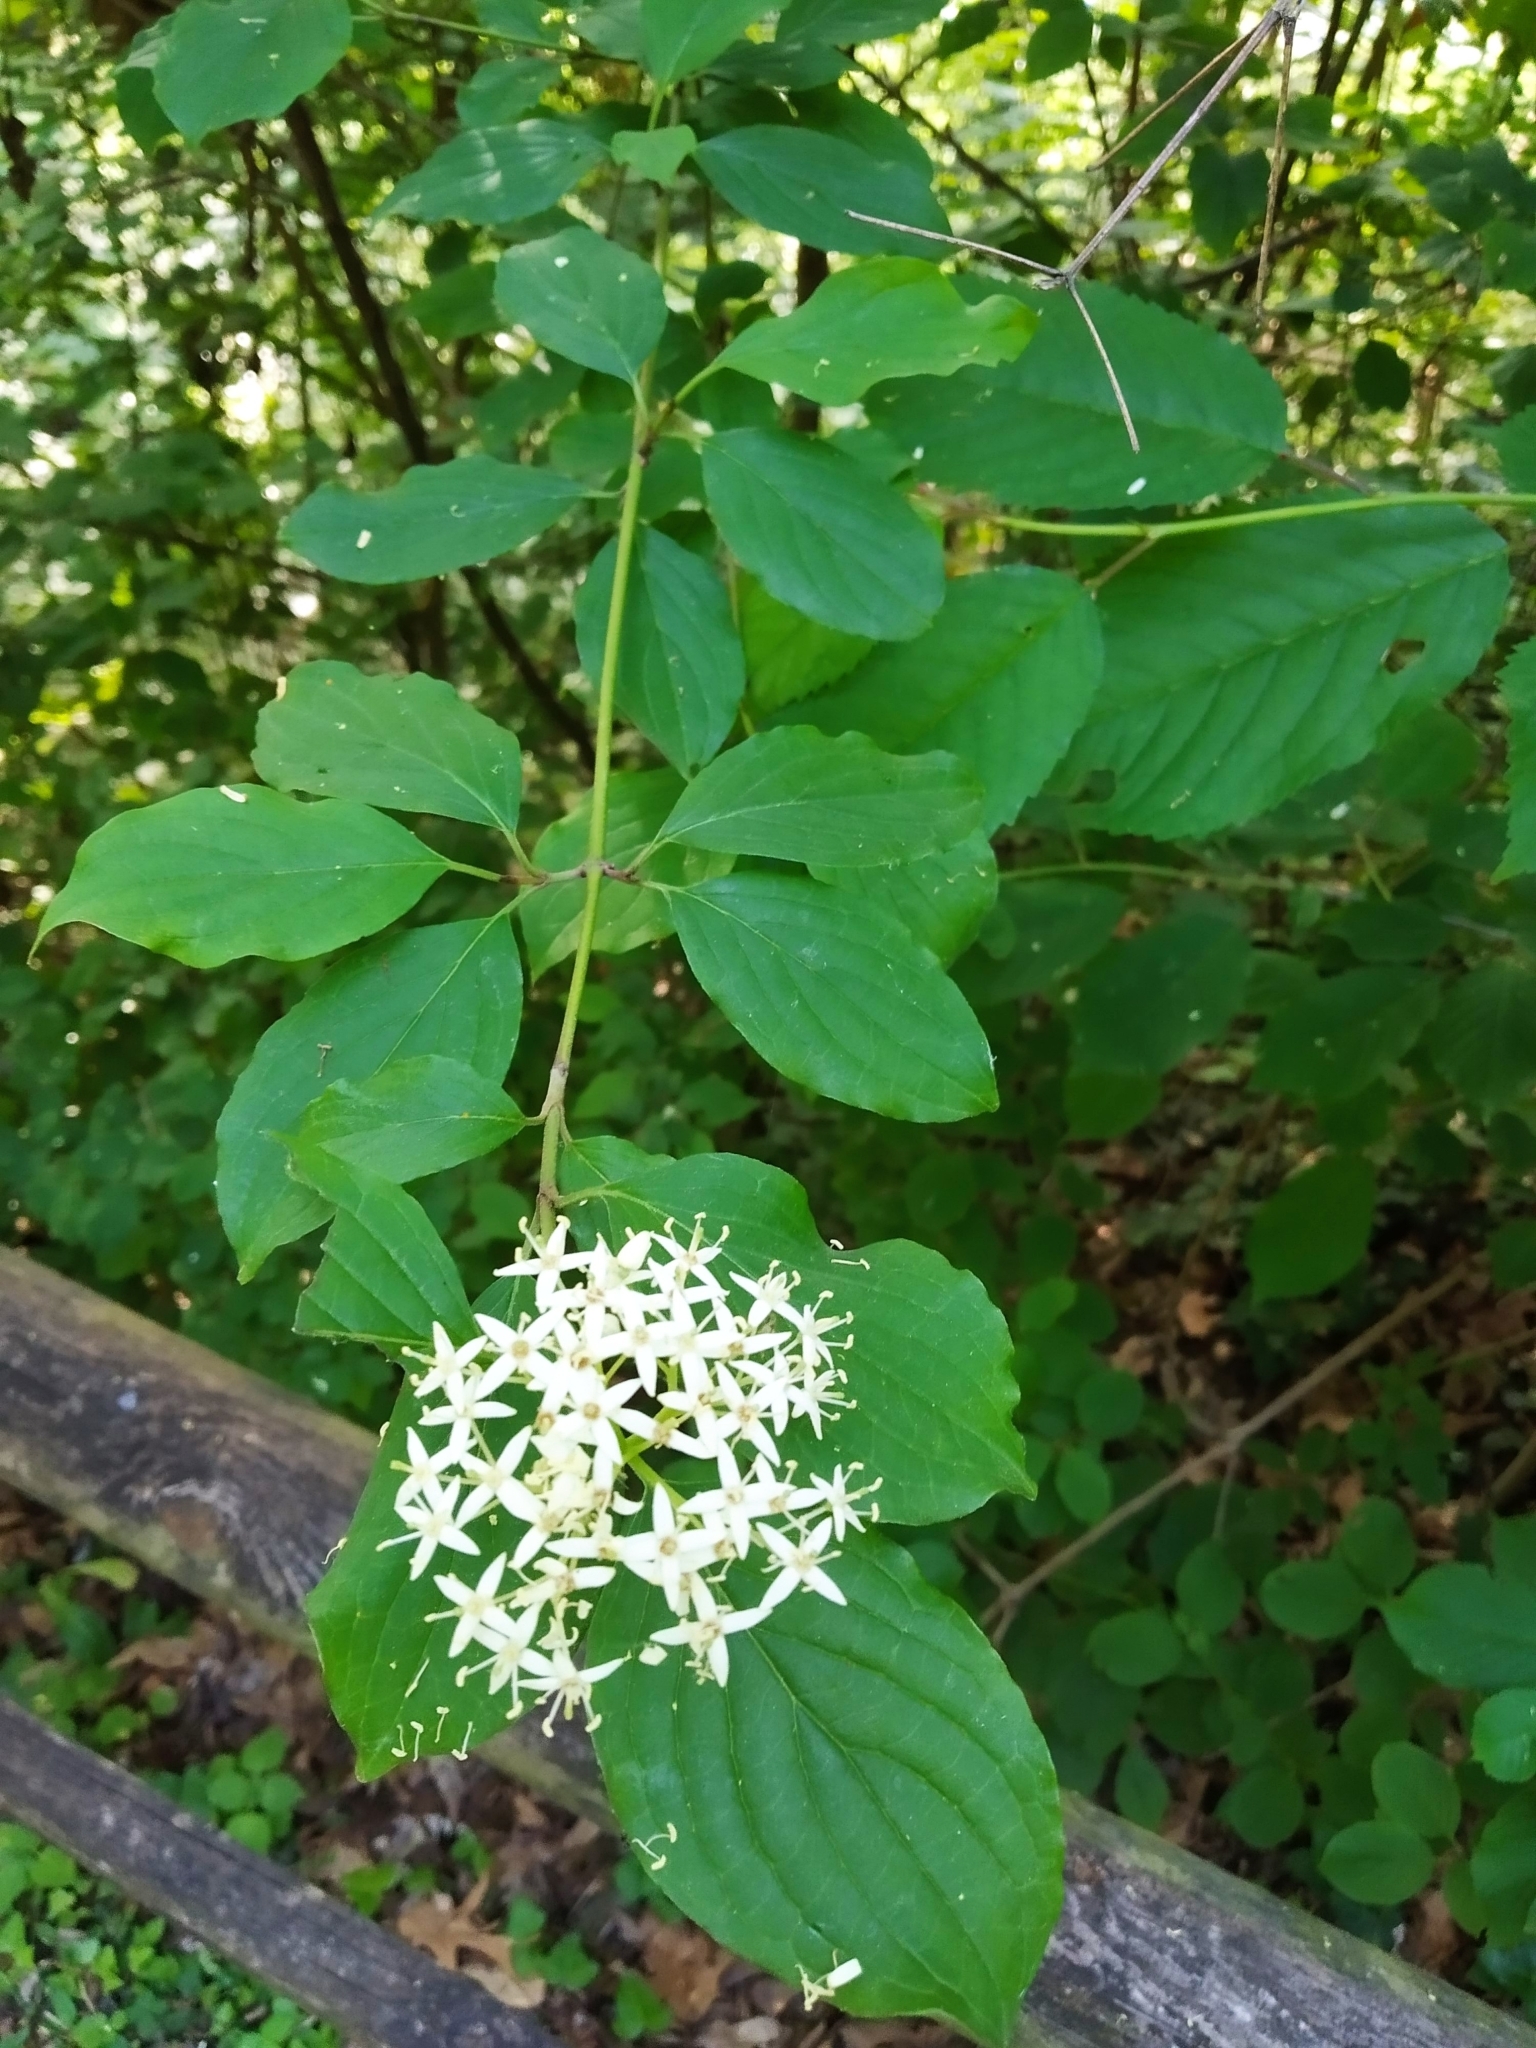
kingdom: Plantae
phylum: Tracheophyta
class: Magnoliopsida
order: Cornales
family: Cornaceae
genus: Cornus
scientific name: Cornus sanguinea
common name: Dogwood
